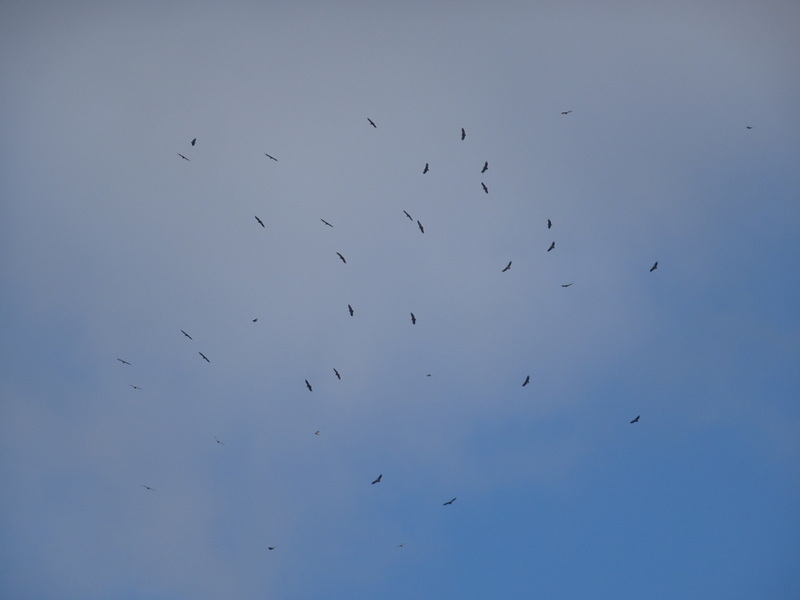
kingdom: Animalia
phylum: Chordata
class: Aves
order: Accipitriformes
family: Accipitridae
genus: Gyps
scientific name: Gyps fulvus
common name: Griffon vulture
